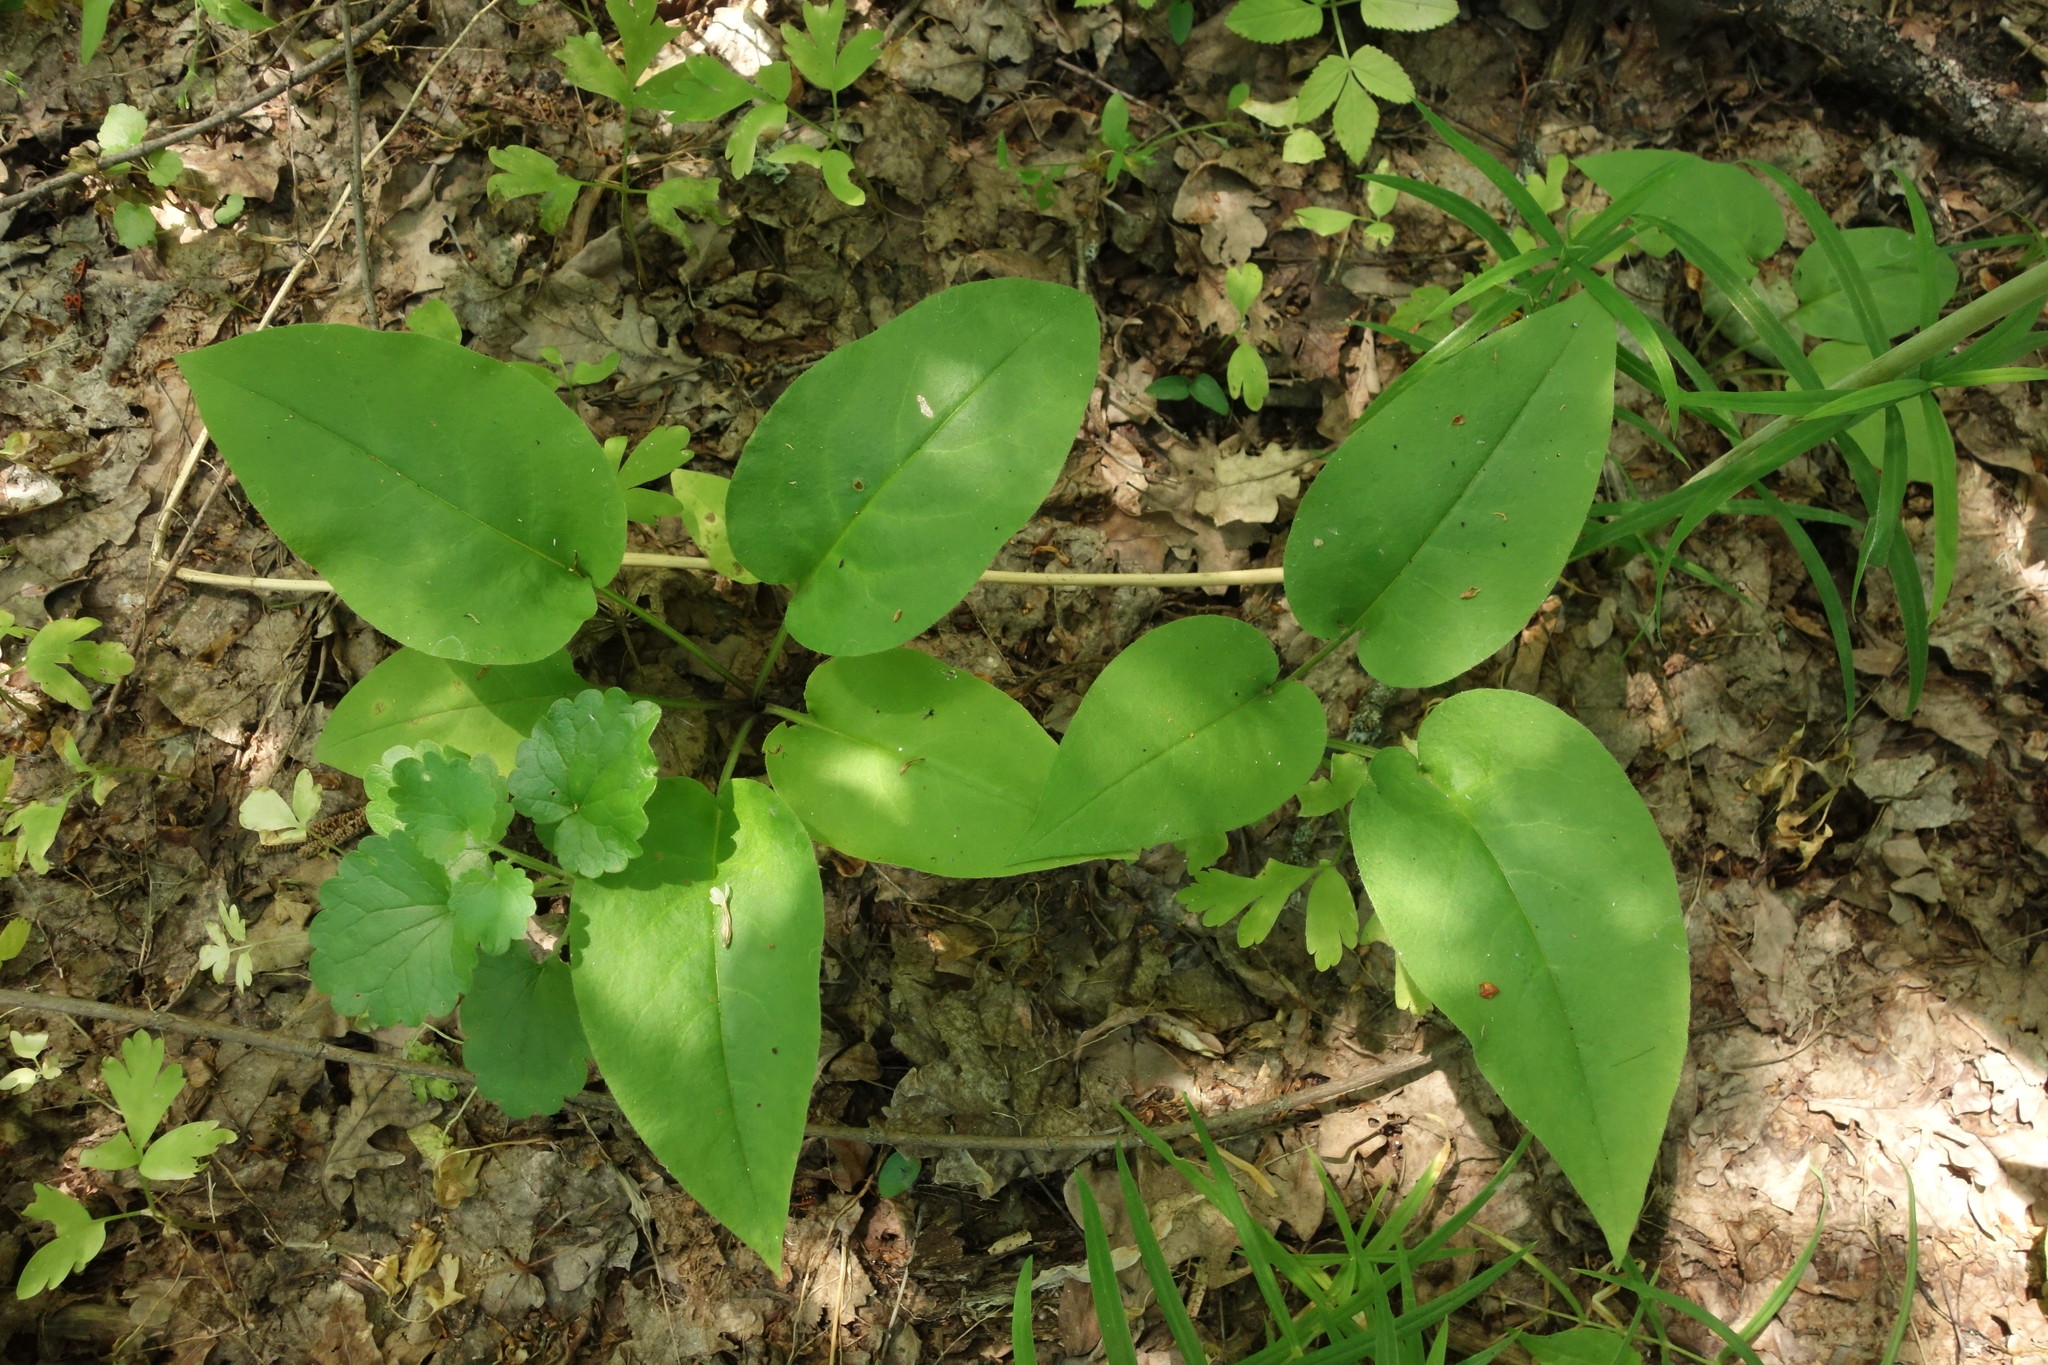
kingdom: Plantae
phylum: Tracheophyta
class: Magnoliopsida
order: Boraginales
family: Boraginaceae
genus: Pulmonaria
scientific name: Pulmonaria obscura
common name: Suffolk lungwort
